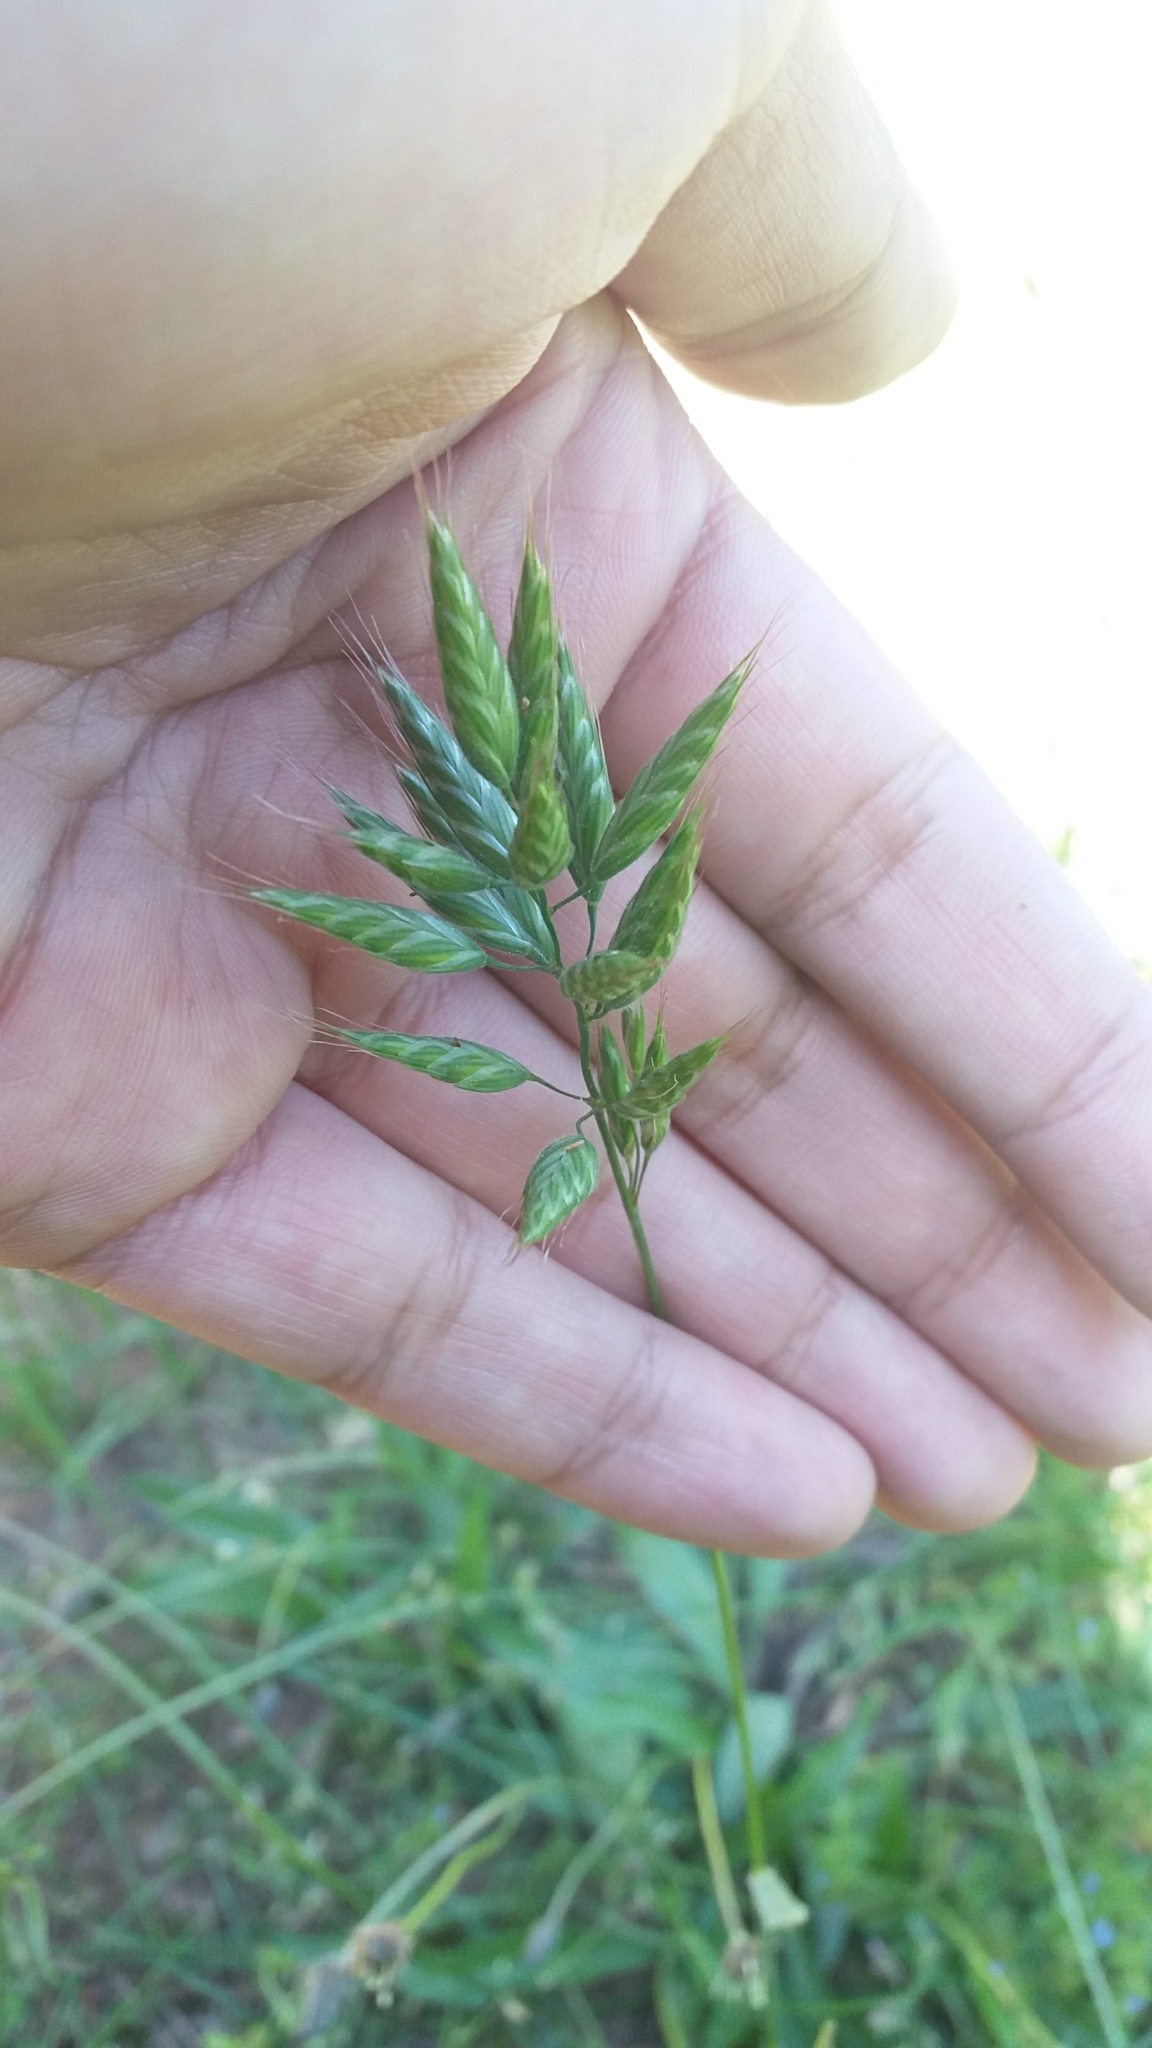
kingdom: Plantae
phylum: Tracheophyta
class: Liliopsida
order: Poales
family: Poaceae
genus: Bromus
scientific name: Bromus hordeaceus
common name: Soft brome
